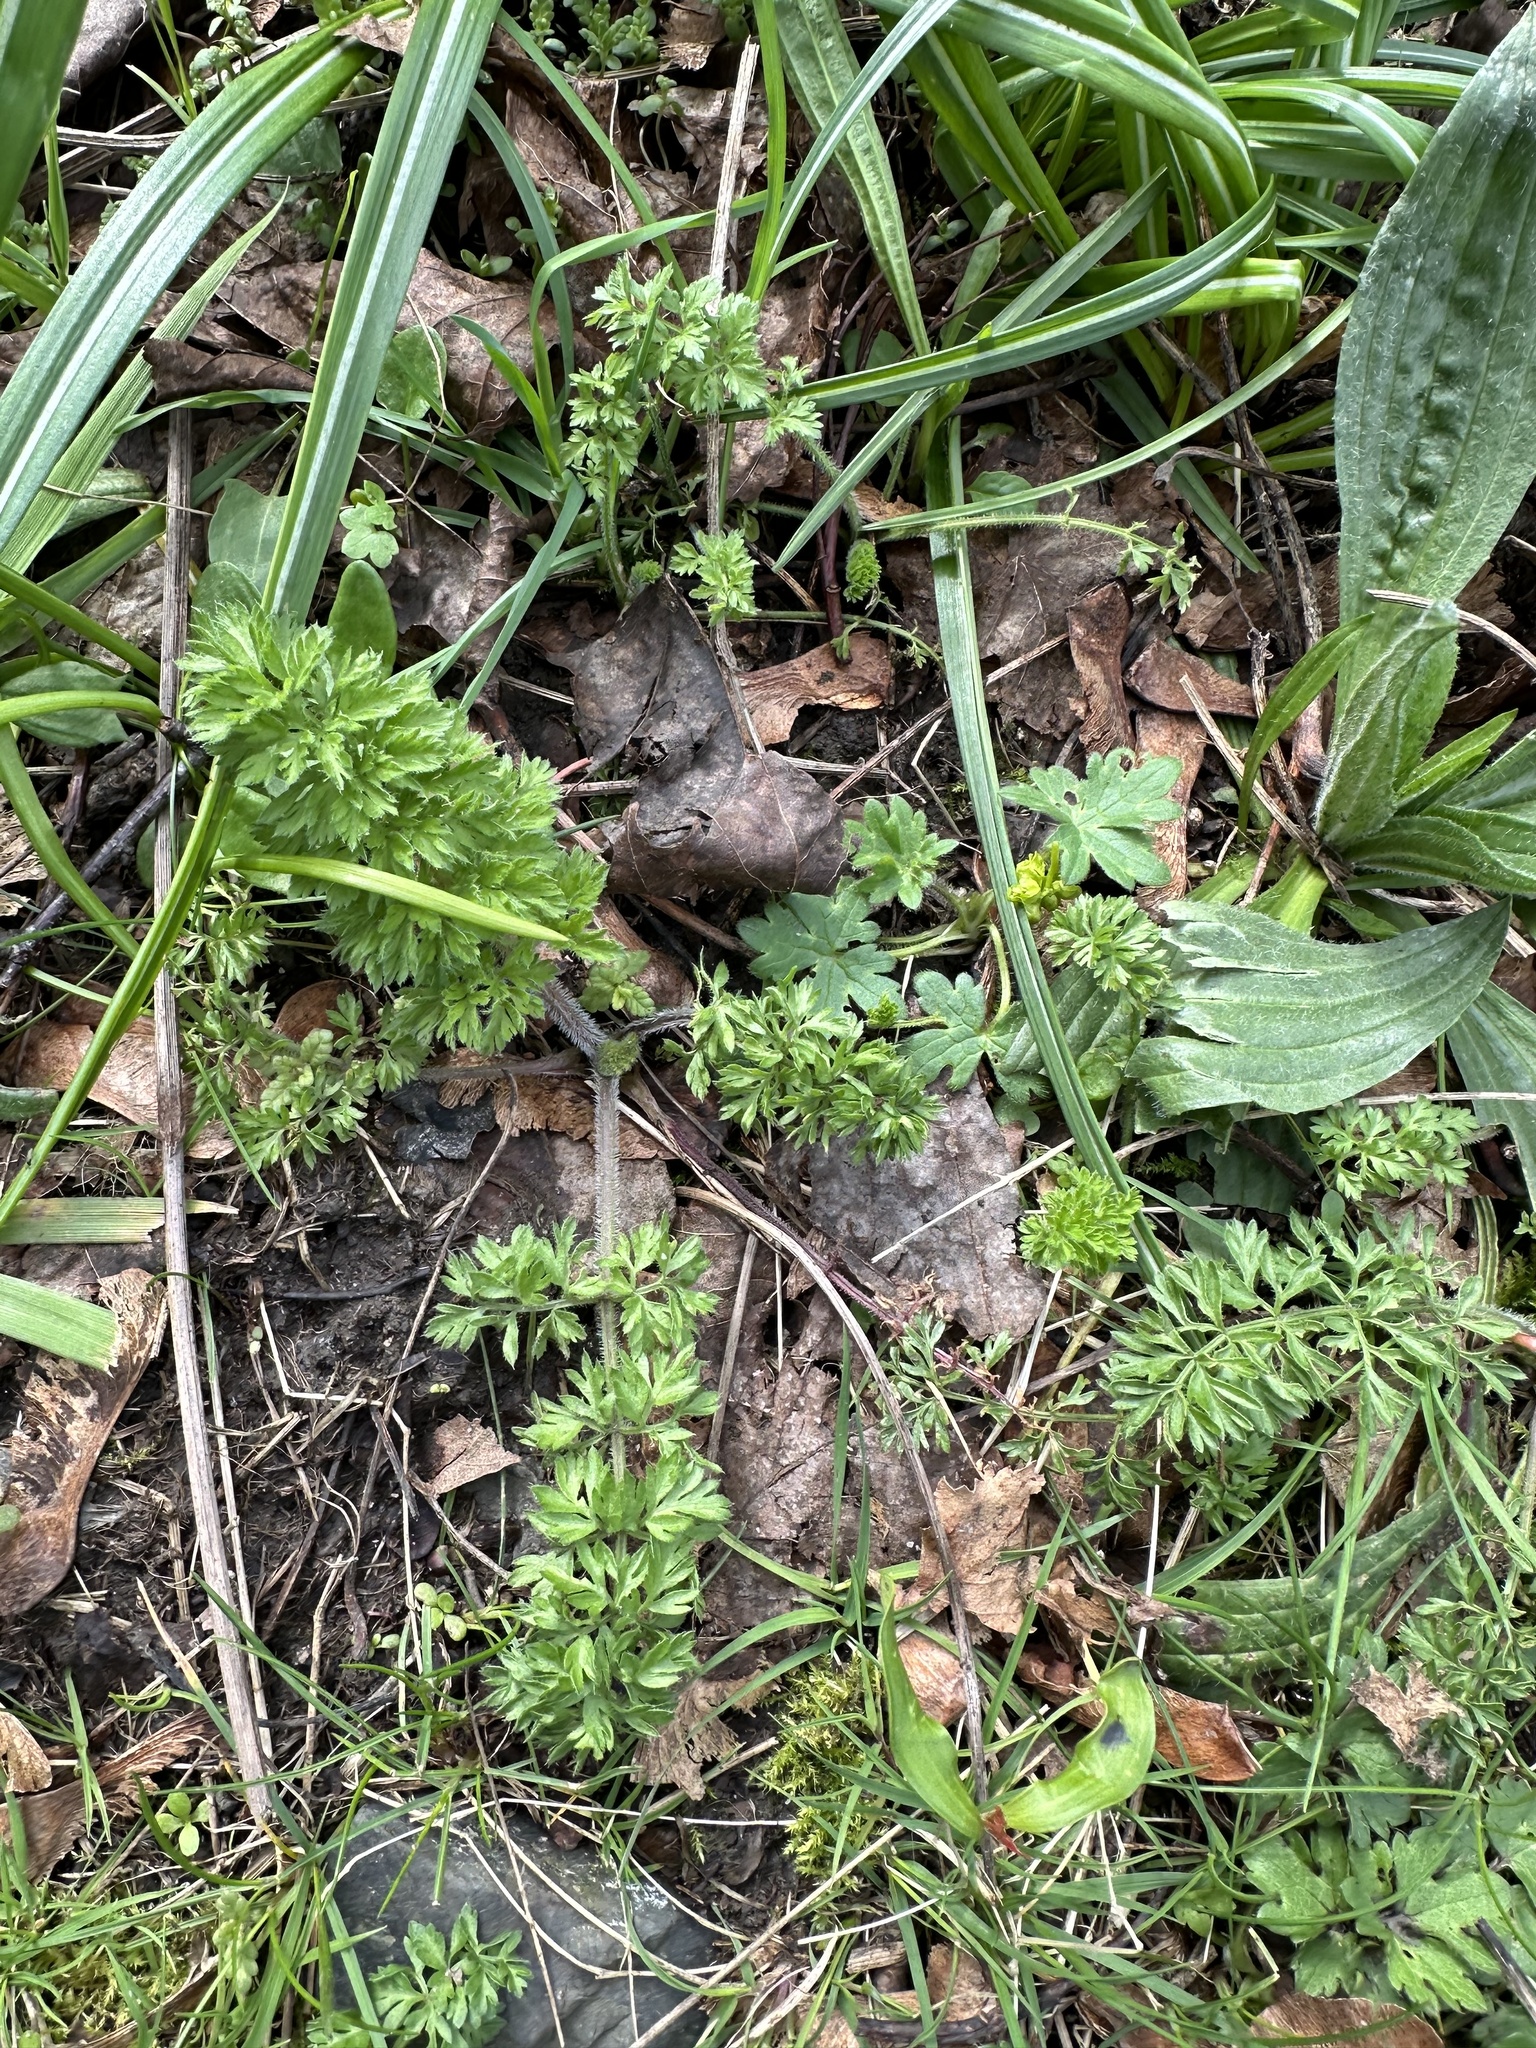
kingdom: Plantae
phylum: Tracheophyta
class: Magnoliopsida
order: Apiales
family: Apiaceae
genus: Daucus
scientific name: Daucus carota
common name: Wild carrot
